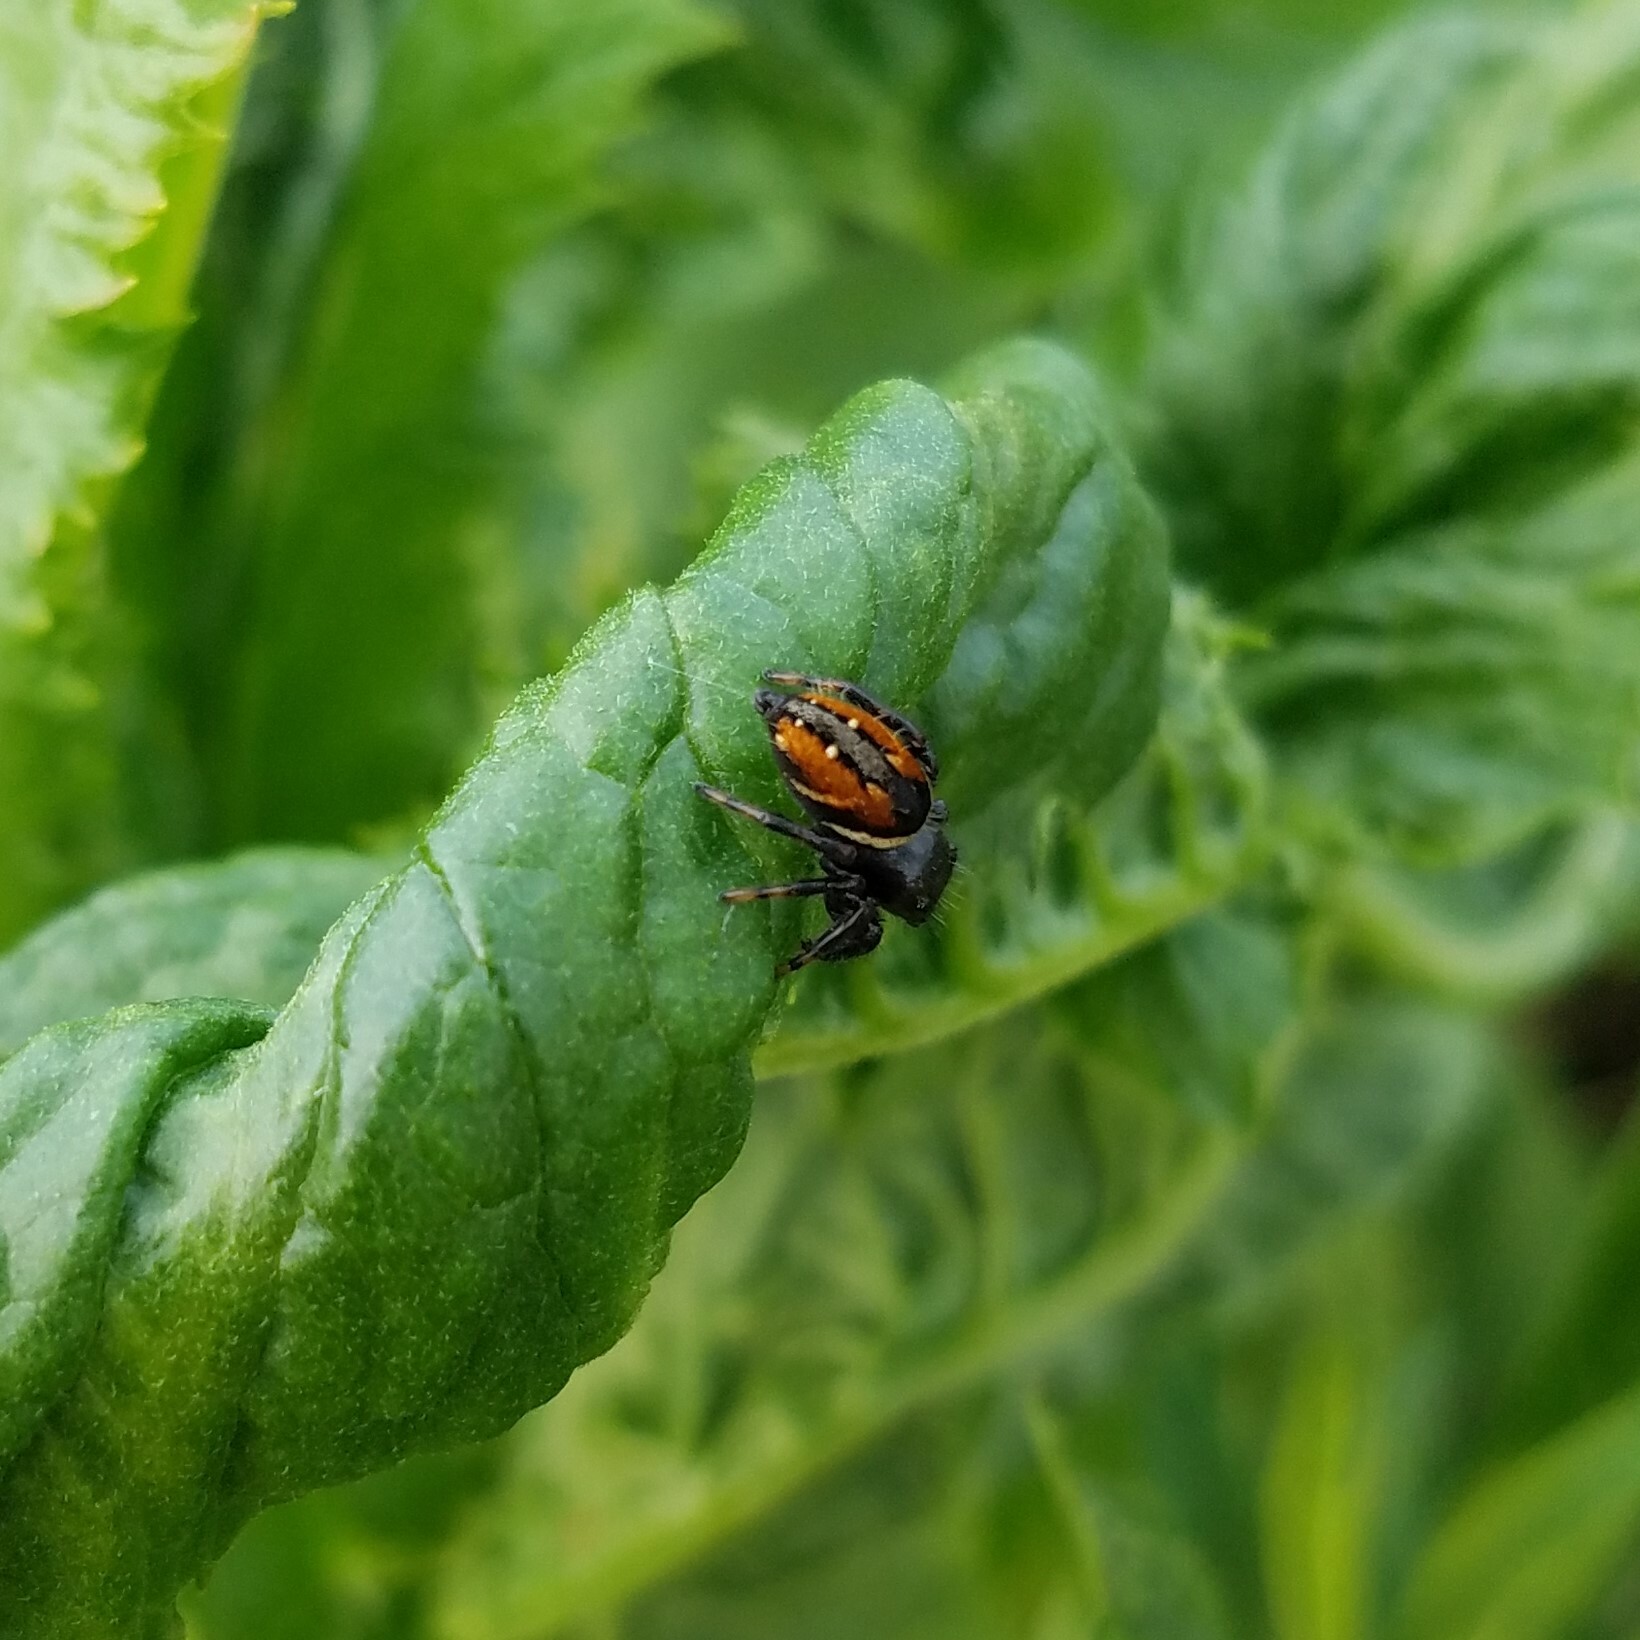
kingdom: Animalia
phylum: Arthropoda
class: Arachnida
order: Araneae
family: Salticidae
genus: Phidippus
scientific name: Phidippus clarus
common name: Brilliant jumping spider
